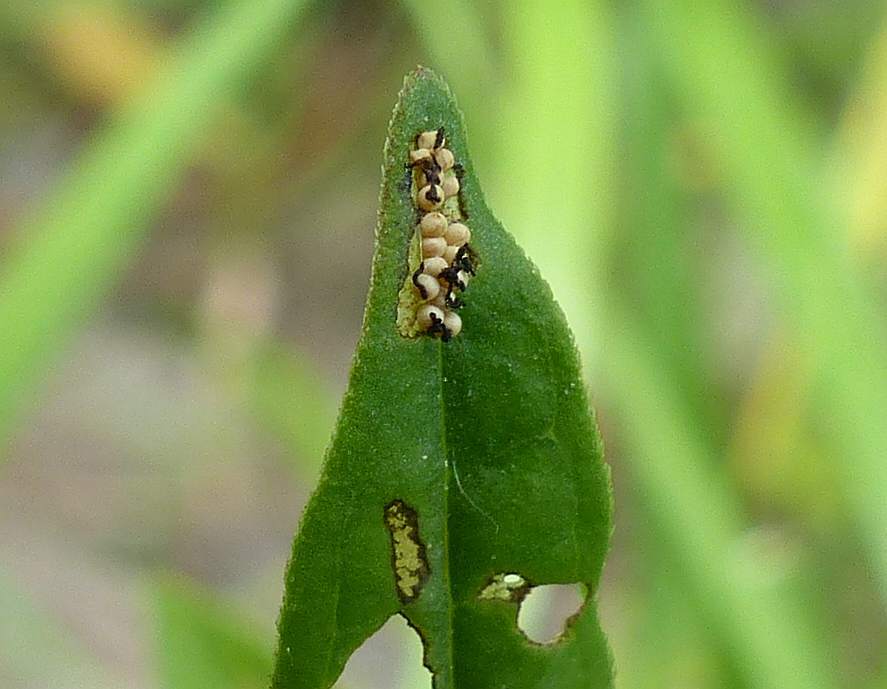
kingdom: Animalia
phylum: Arthropoda
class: Insecta
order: Coleoptera
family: Chrysomelidae
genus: Neogalerucella
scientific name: Neogalerucella calmariensis
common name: Black-margined loosestrife beetle
